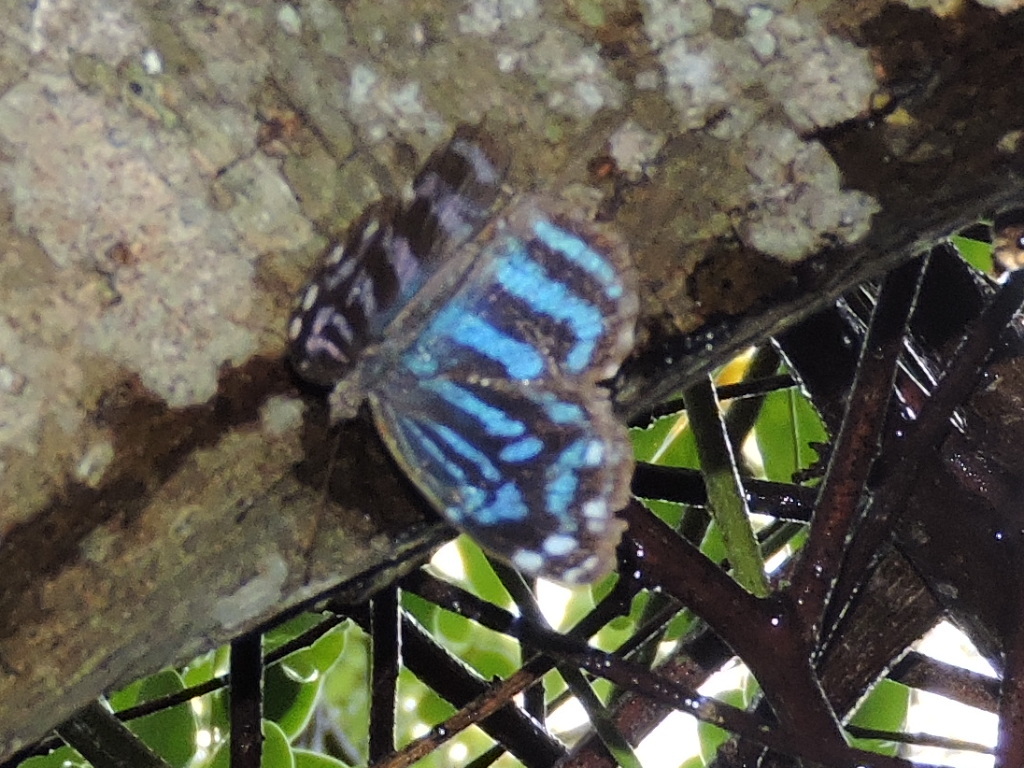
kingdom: Animalia
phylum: Arthropoda
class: Insecta
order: Lepidoptera
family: Nymphalidae
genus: Myscelia
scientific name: Myscelia ethusa
